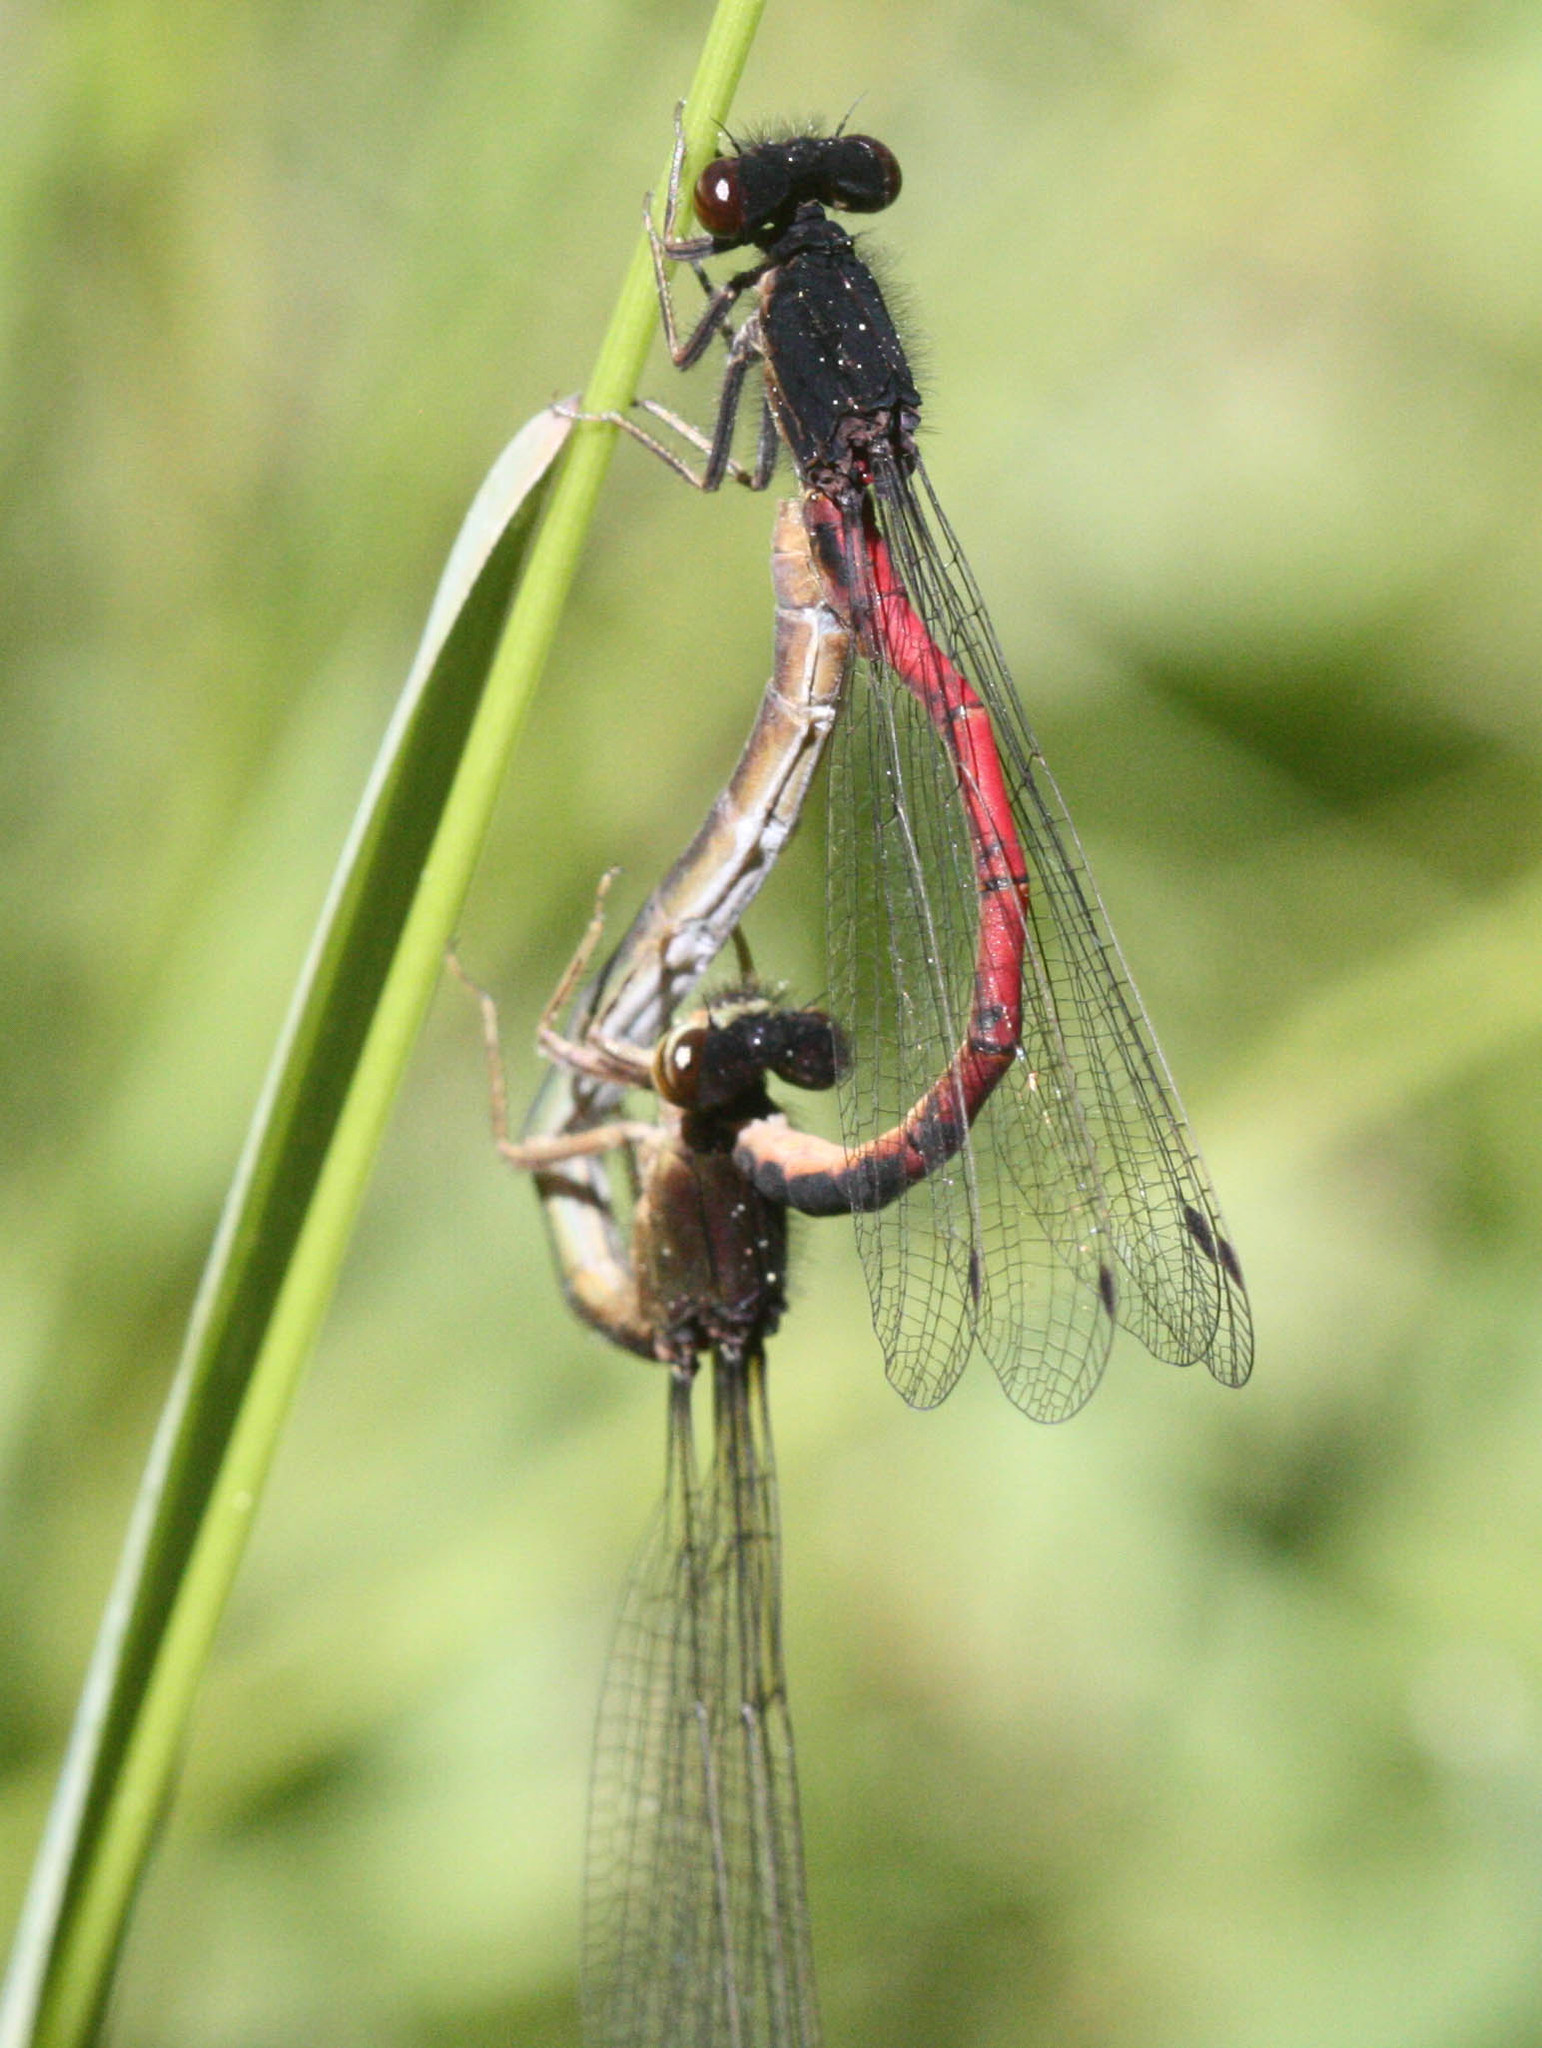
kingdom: Animalia
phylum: Arthropoda
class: Insecta
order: Odonata
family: Coenagrionidae
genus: Amphiagrion
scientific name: Amphiagrion abbreviatum
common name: Western red damsel
